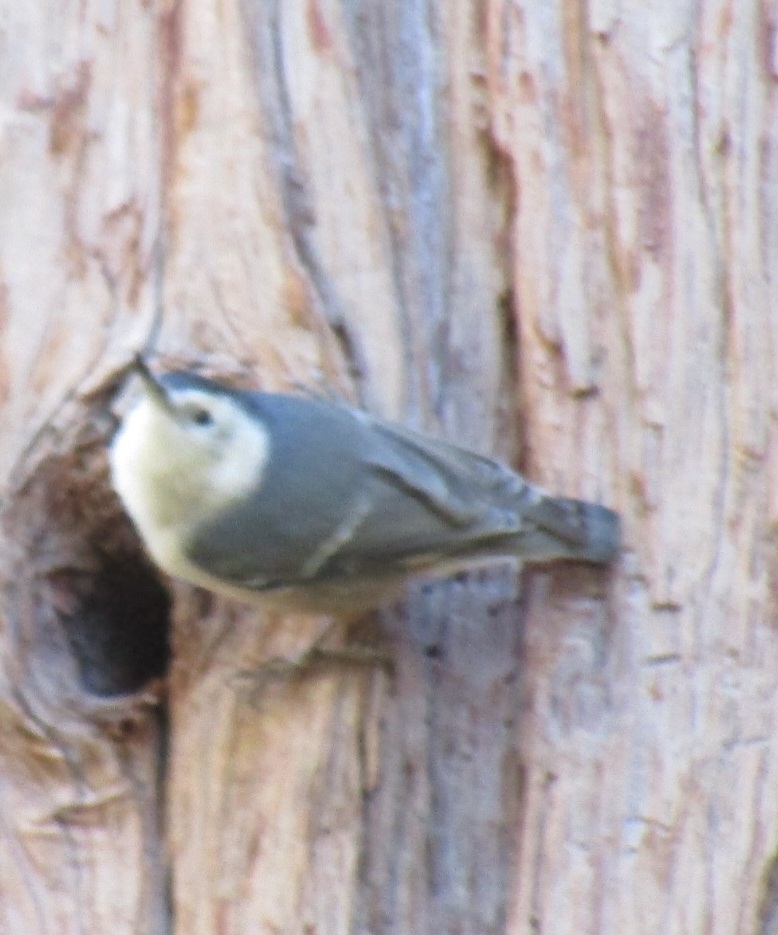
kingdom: Animalia
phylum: Chordata
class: Aves
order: Passeriformes
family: Sittidae
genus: Sitta
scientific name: Sitta carolinensis
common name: White-breasted nuthatch
